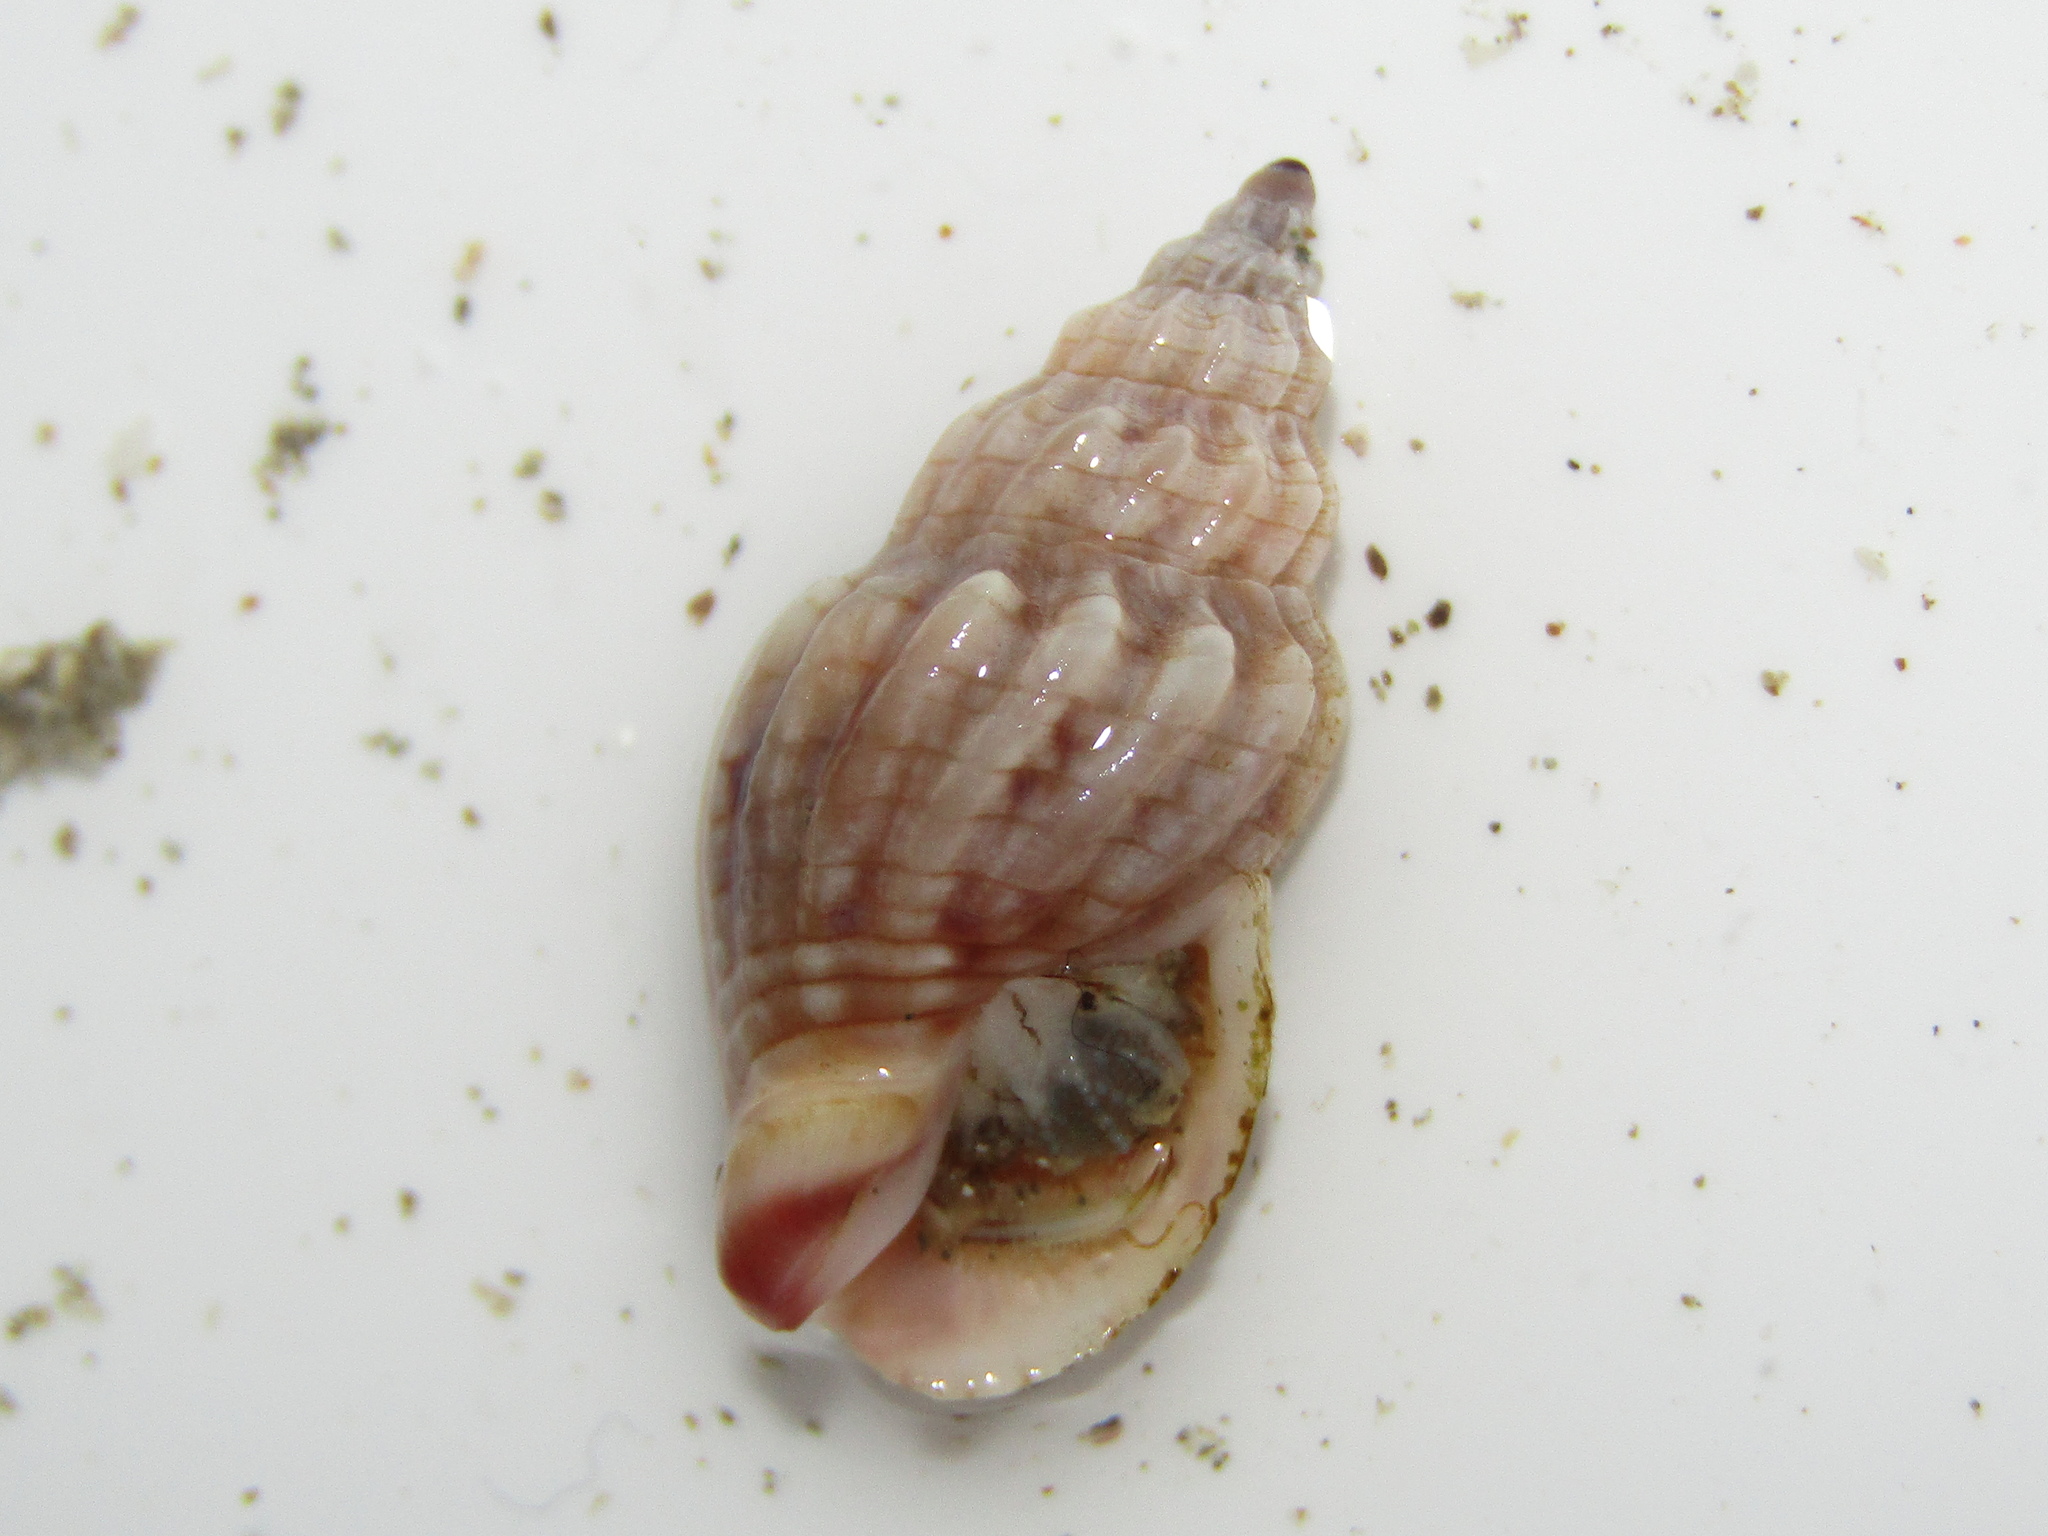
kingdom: Animalia
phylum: Mollusca
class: Gastropoda
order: Neogastropoda
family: Cominellidae
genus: Cominella
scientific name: Cominella quoyana
